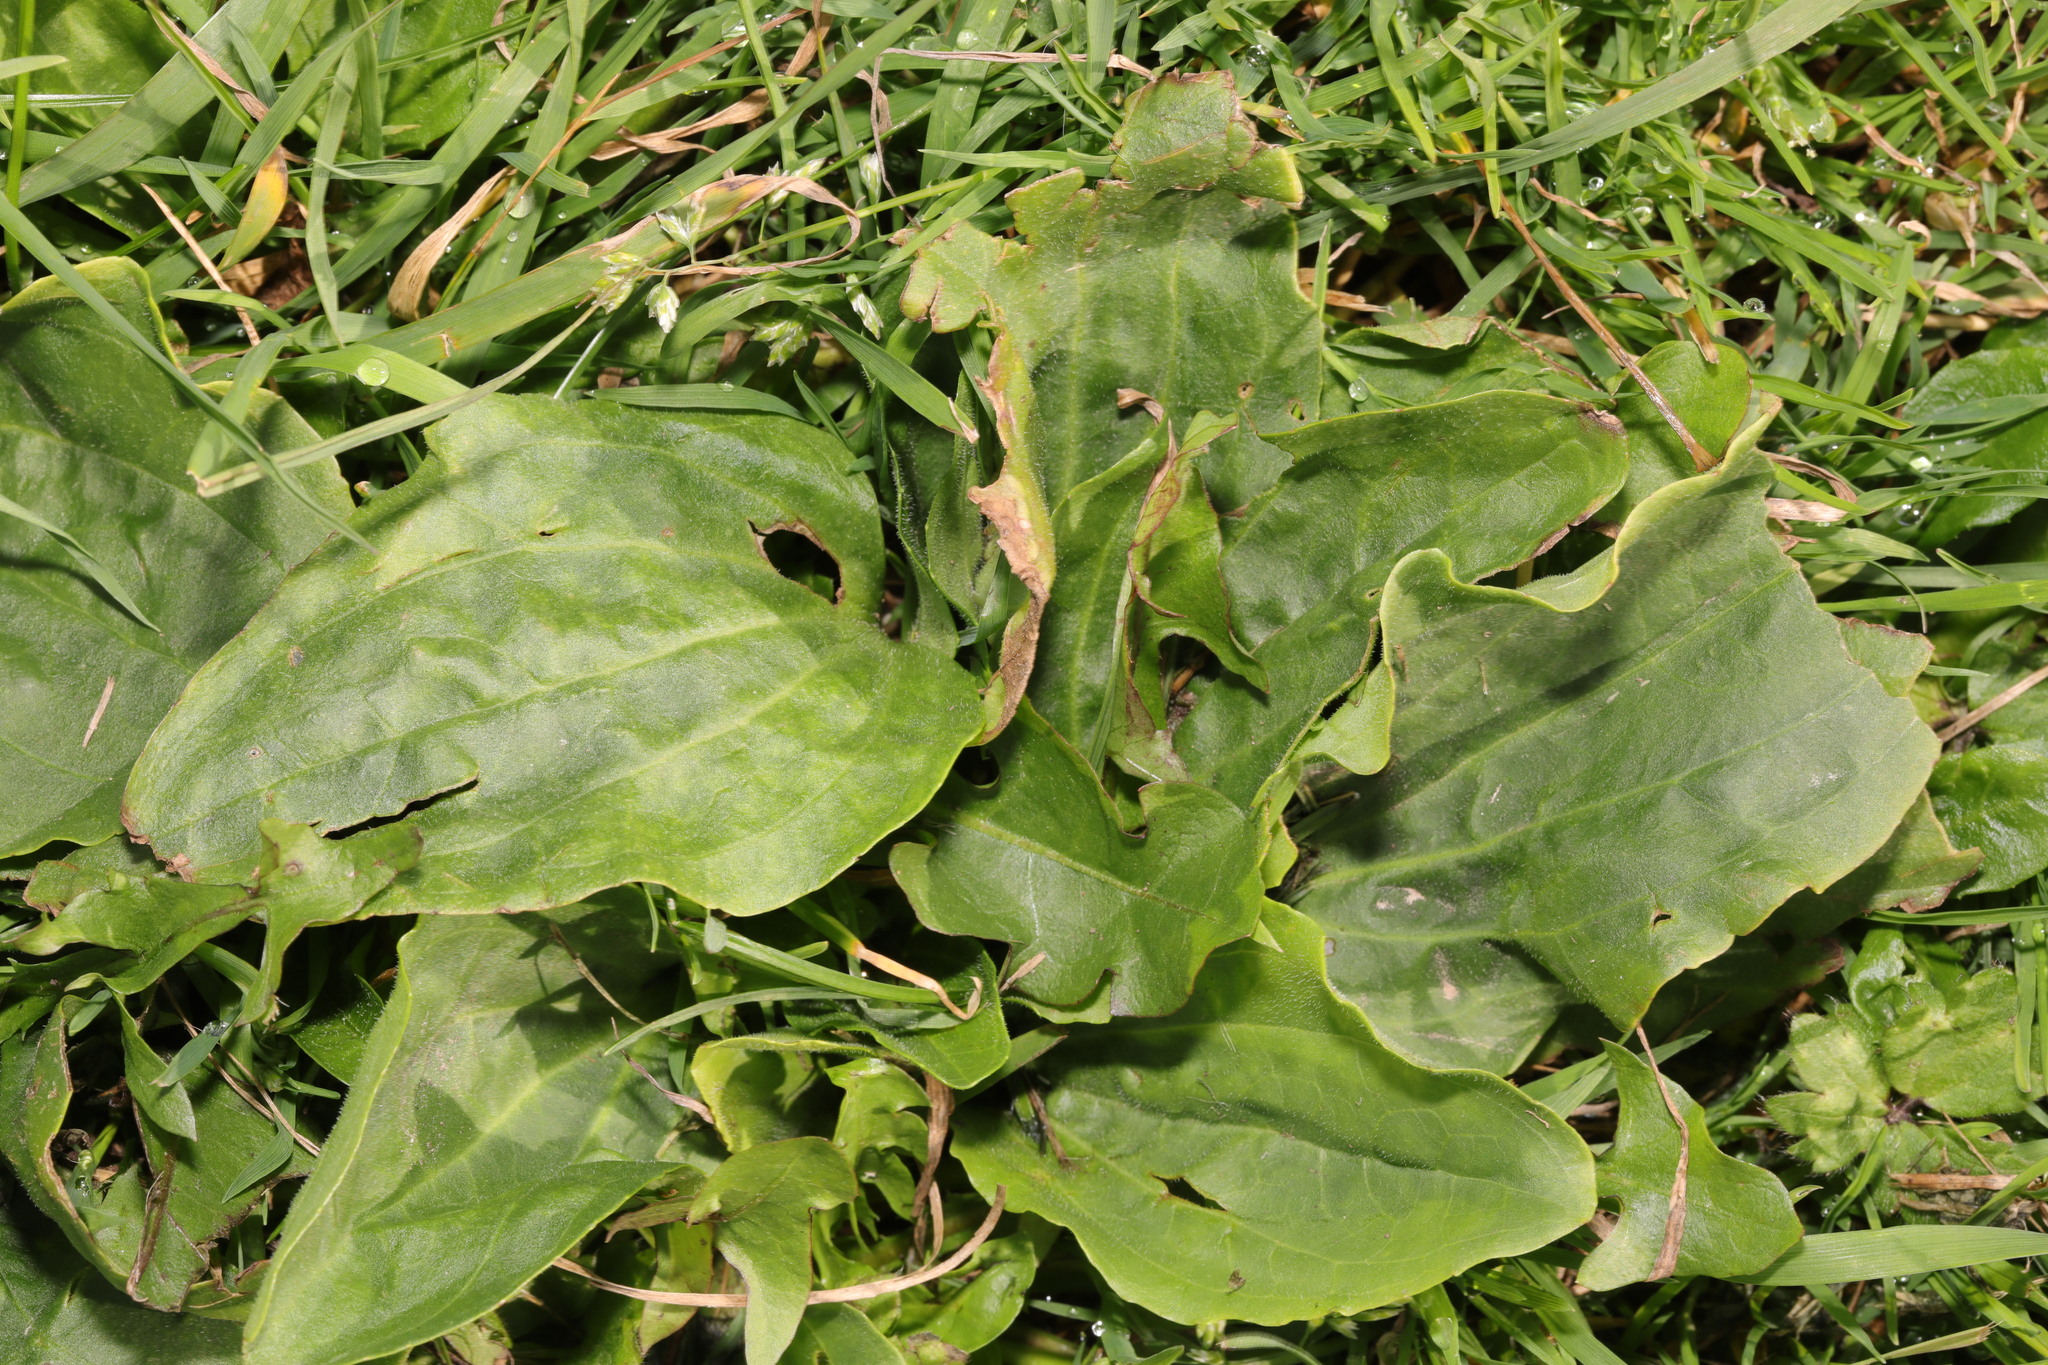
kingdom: Plantae
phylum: Tracheophyta
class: Magnoliopsida
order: Lamiales
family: Plantaginaceae
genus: Plantago
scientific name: Plantago major
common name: Common plantain
